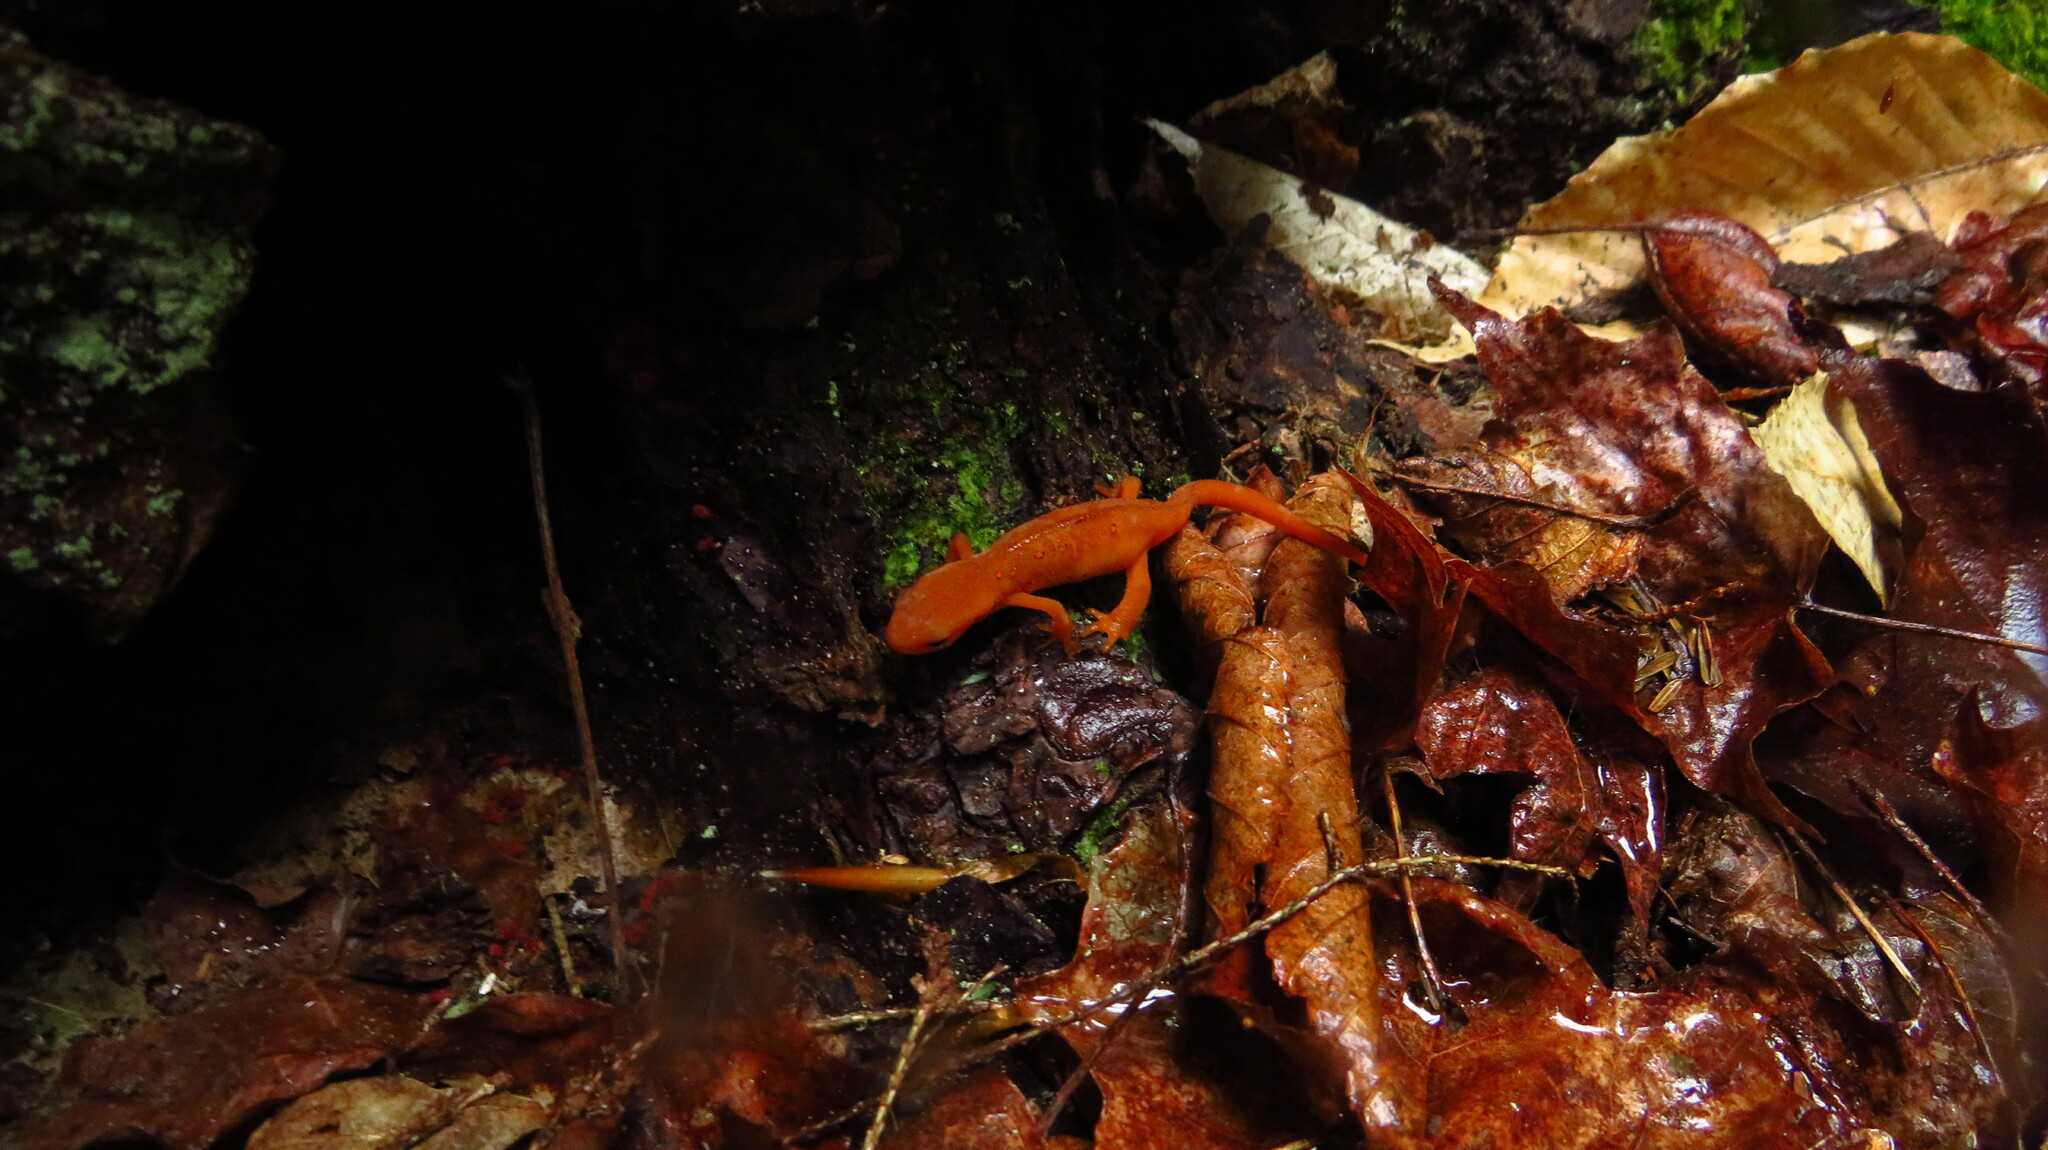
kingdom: Animalia
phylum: Chordata
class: Amphibia
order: Caudata
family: Salamandridae
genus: Notophthalmus
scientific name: Notophthalmus viridescens
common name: Eastern newt
